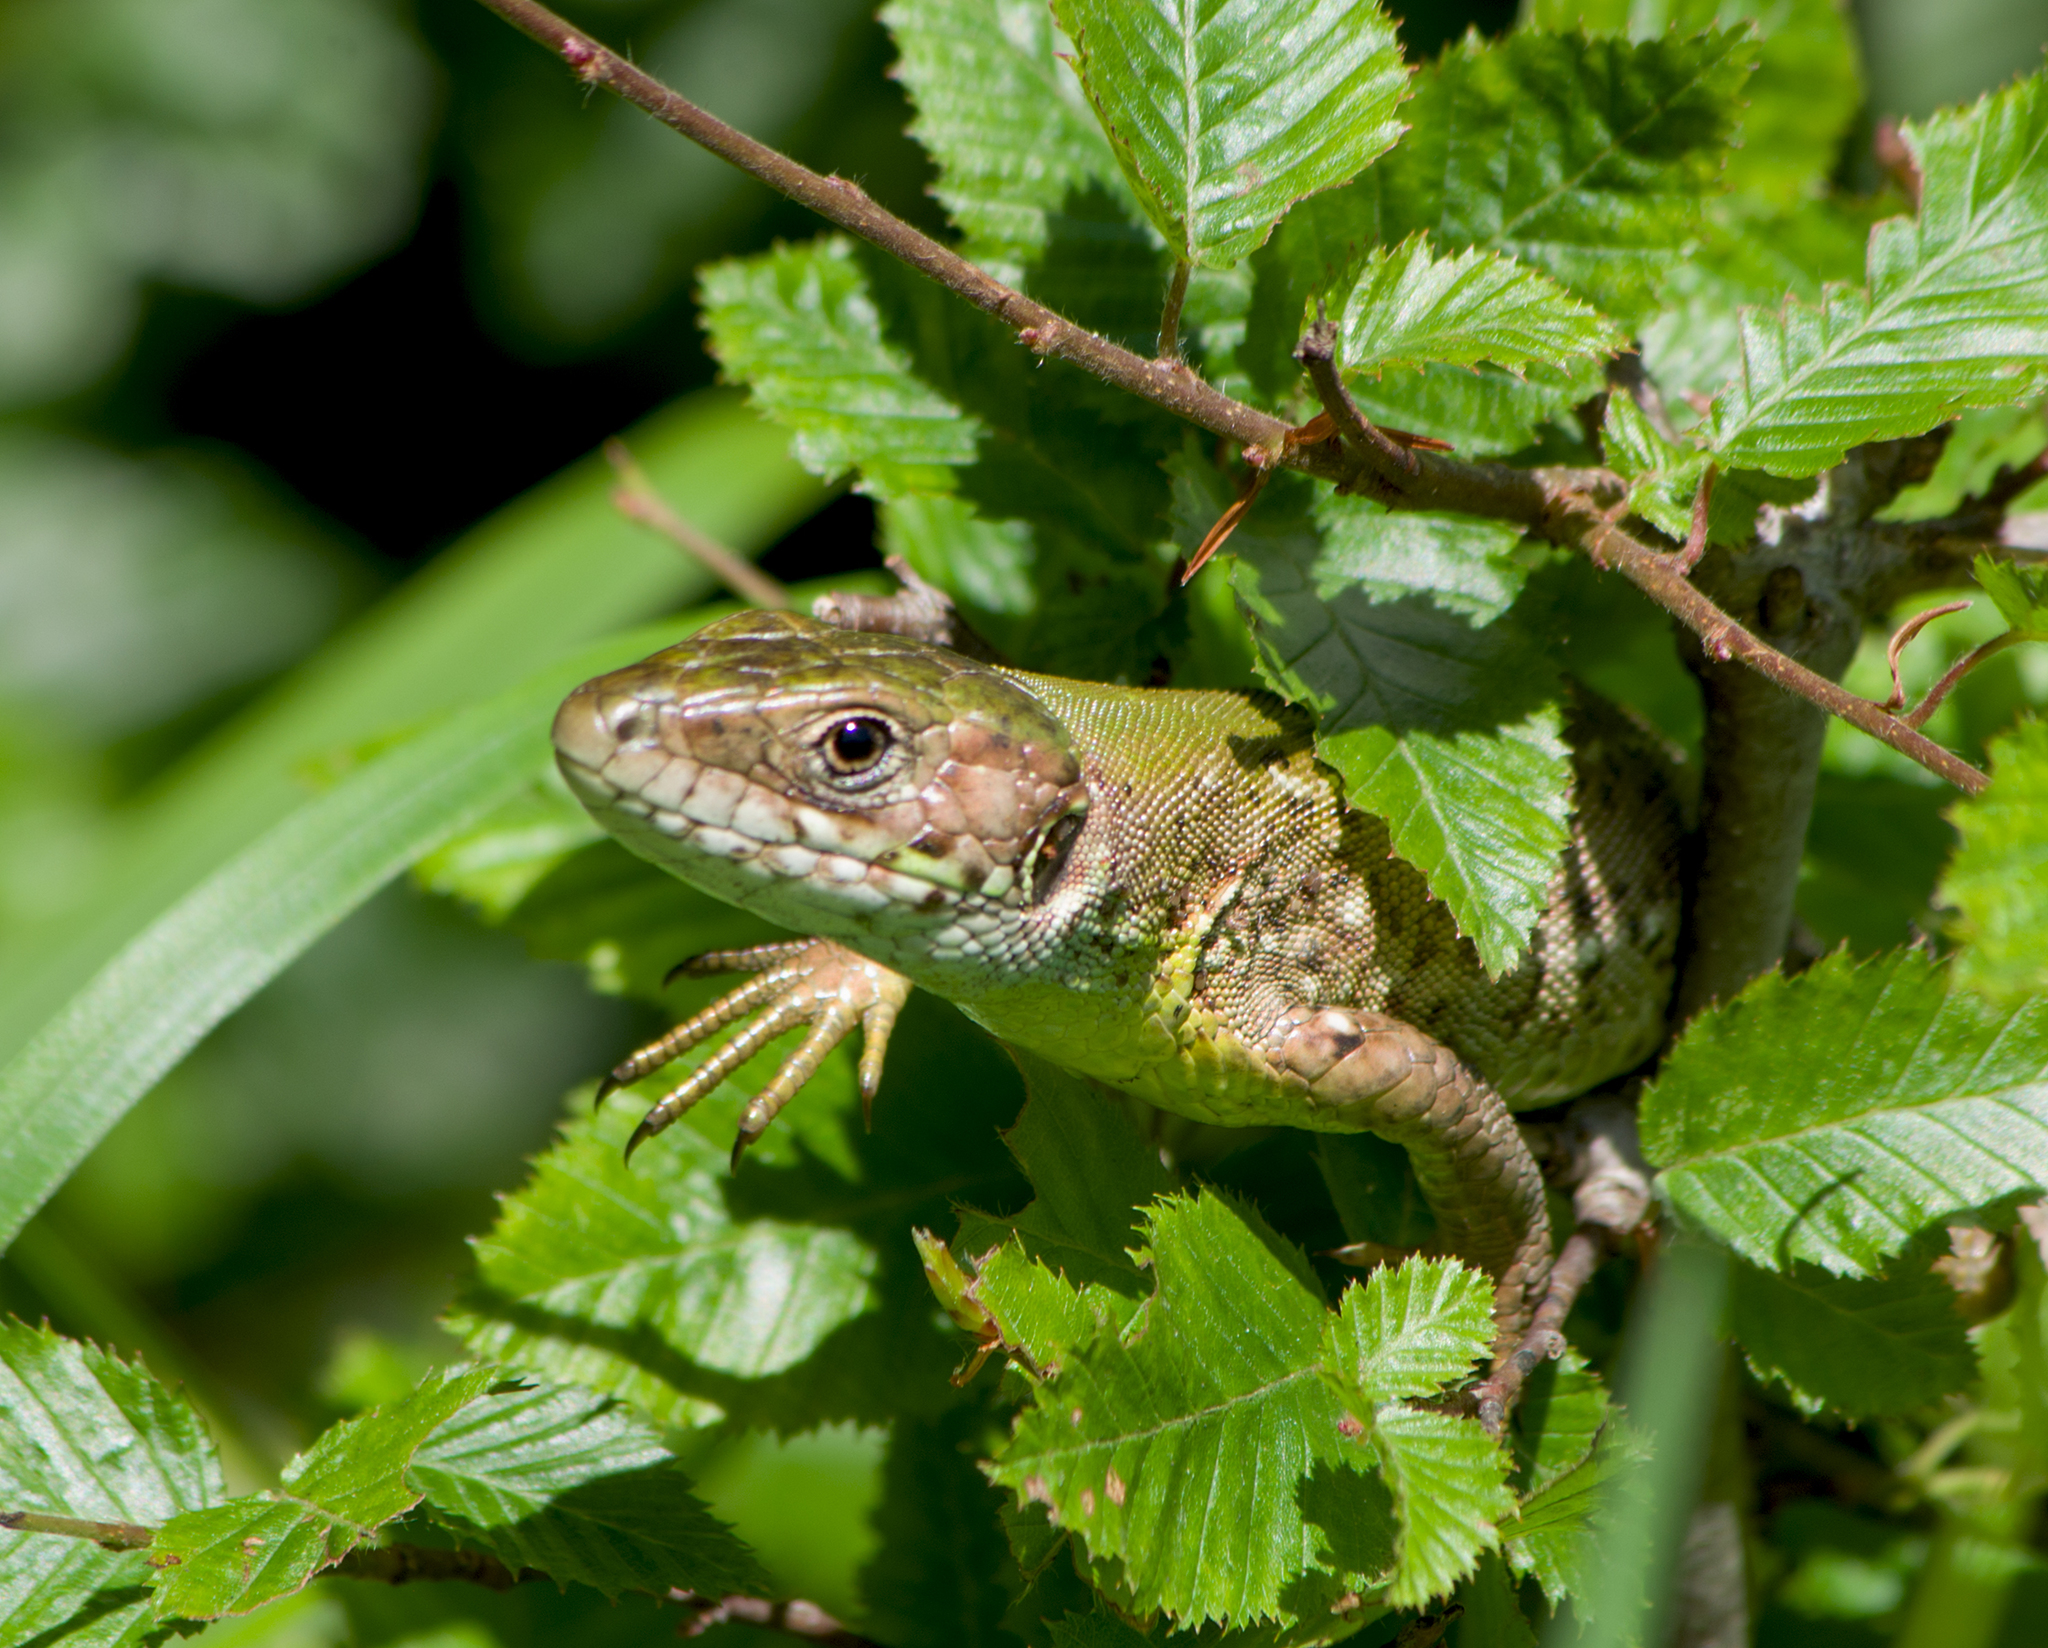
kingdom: Animalia
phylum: Chordata
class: Squamata
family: Lacertidae
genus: Lacerta
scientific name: Lacerta viridis
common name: European green lizard
